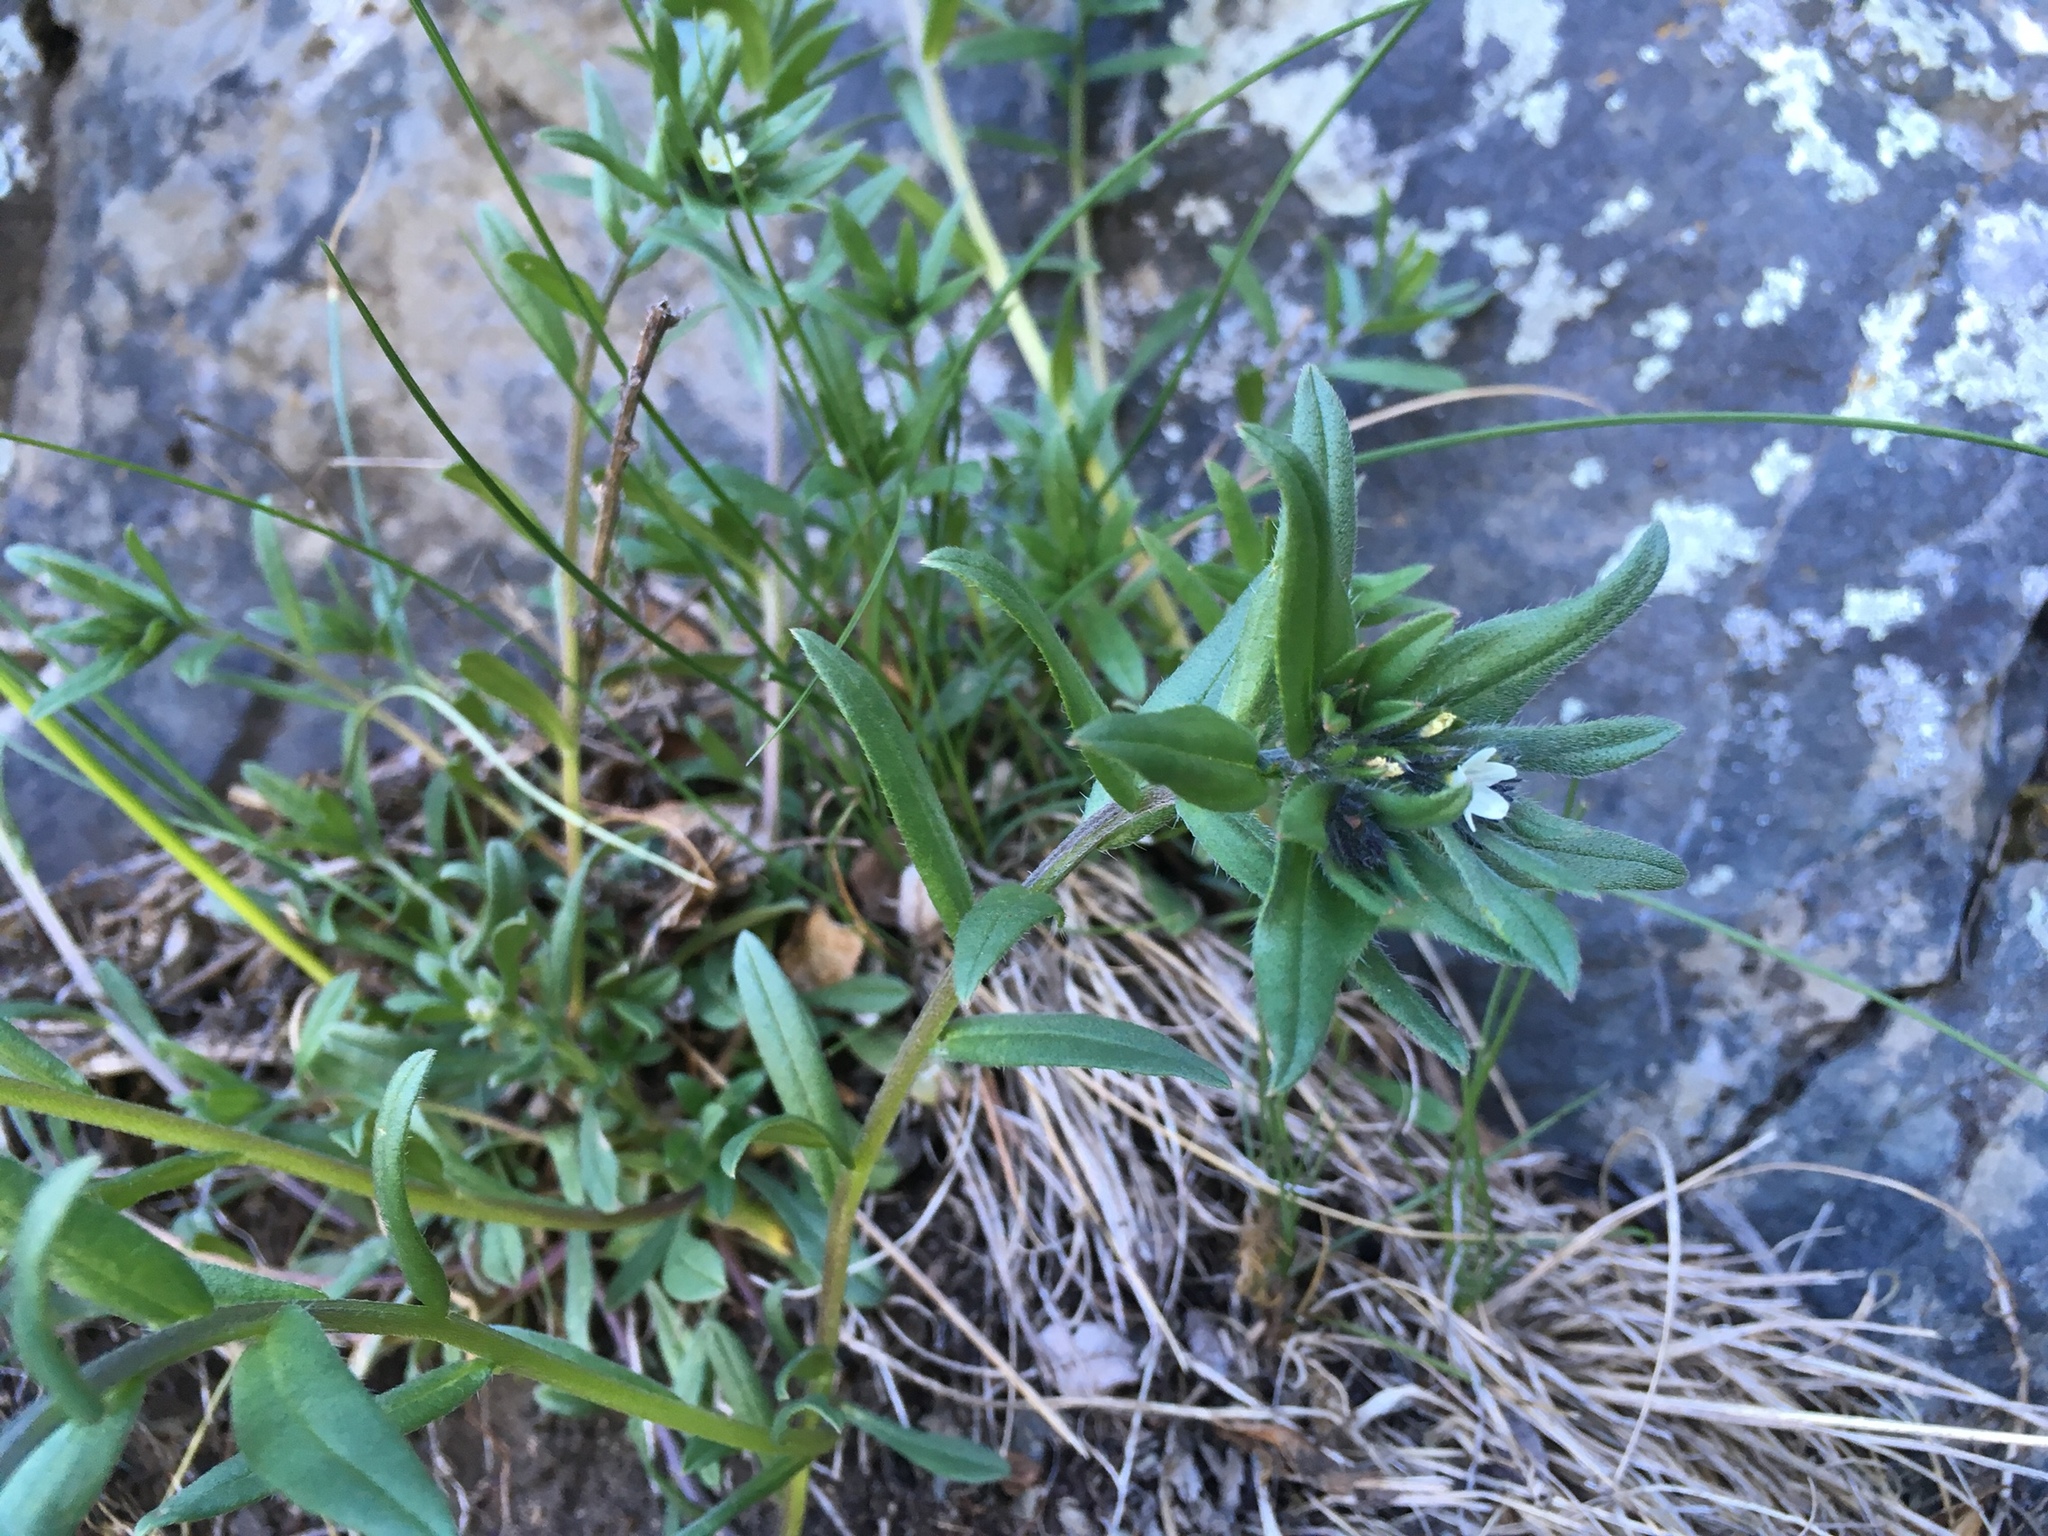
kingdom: Plantae
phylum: Tracheophyta
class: Magnoliopsida
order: Boraginales
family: Boraginaceae
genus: Buglossoides
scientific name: Buglossoides arvensis
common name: Corn gromwell
